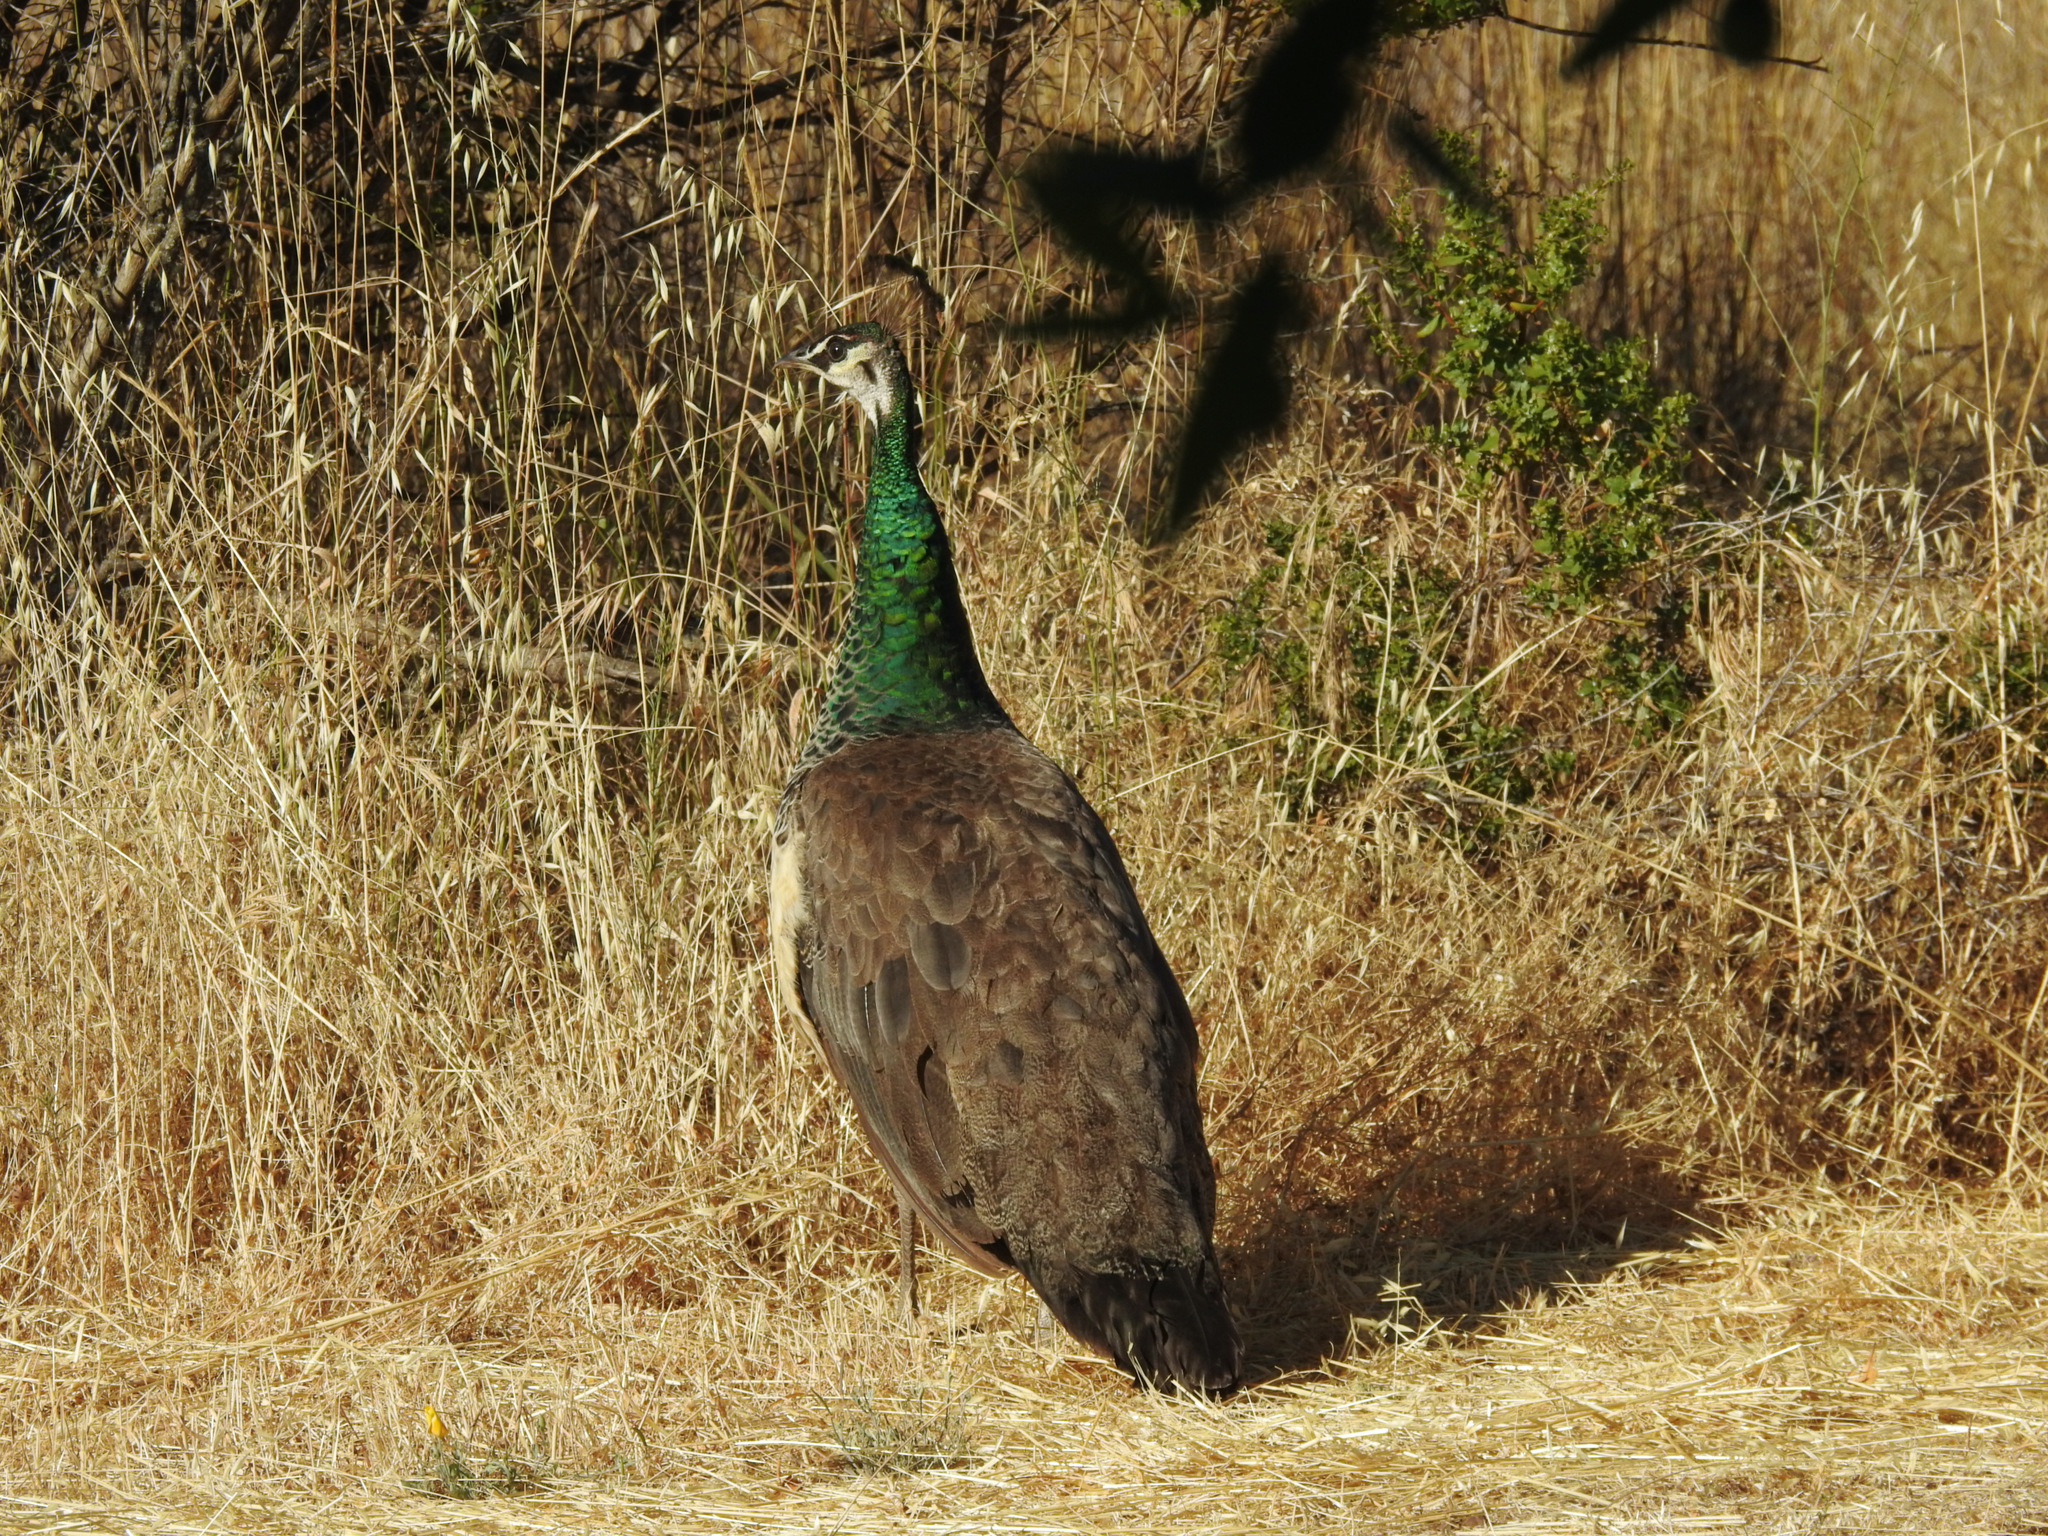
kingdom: Animalia
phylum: Chordata
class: Aves
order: Galliformes
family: Phasianidae
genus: Pavo
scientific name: Pavo cristatus
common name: Indian peafowl
